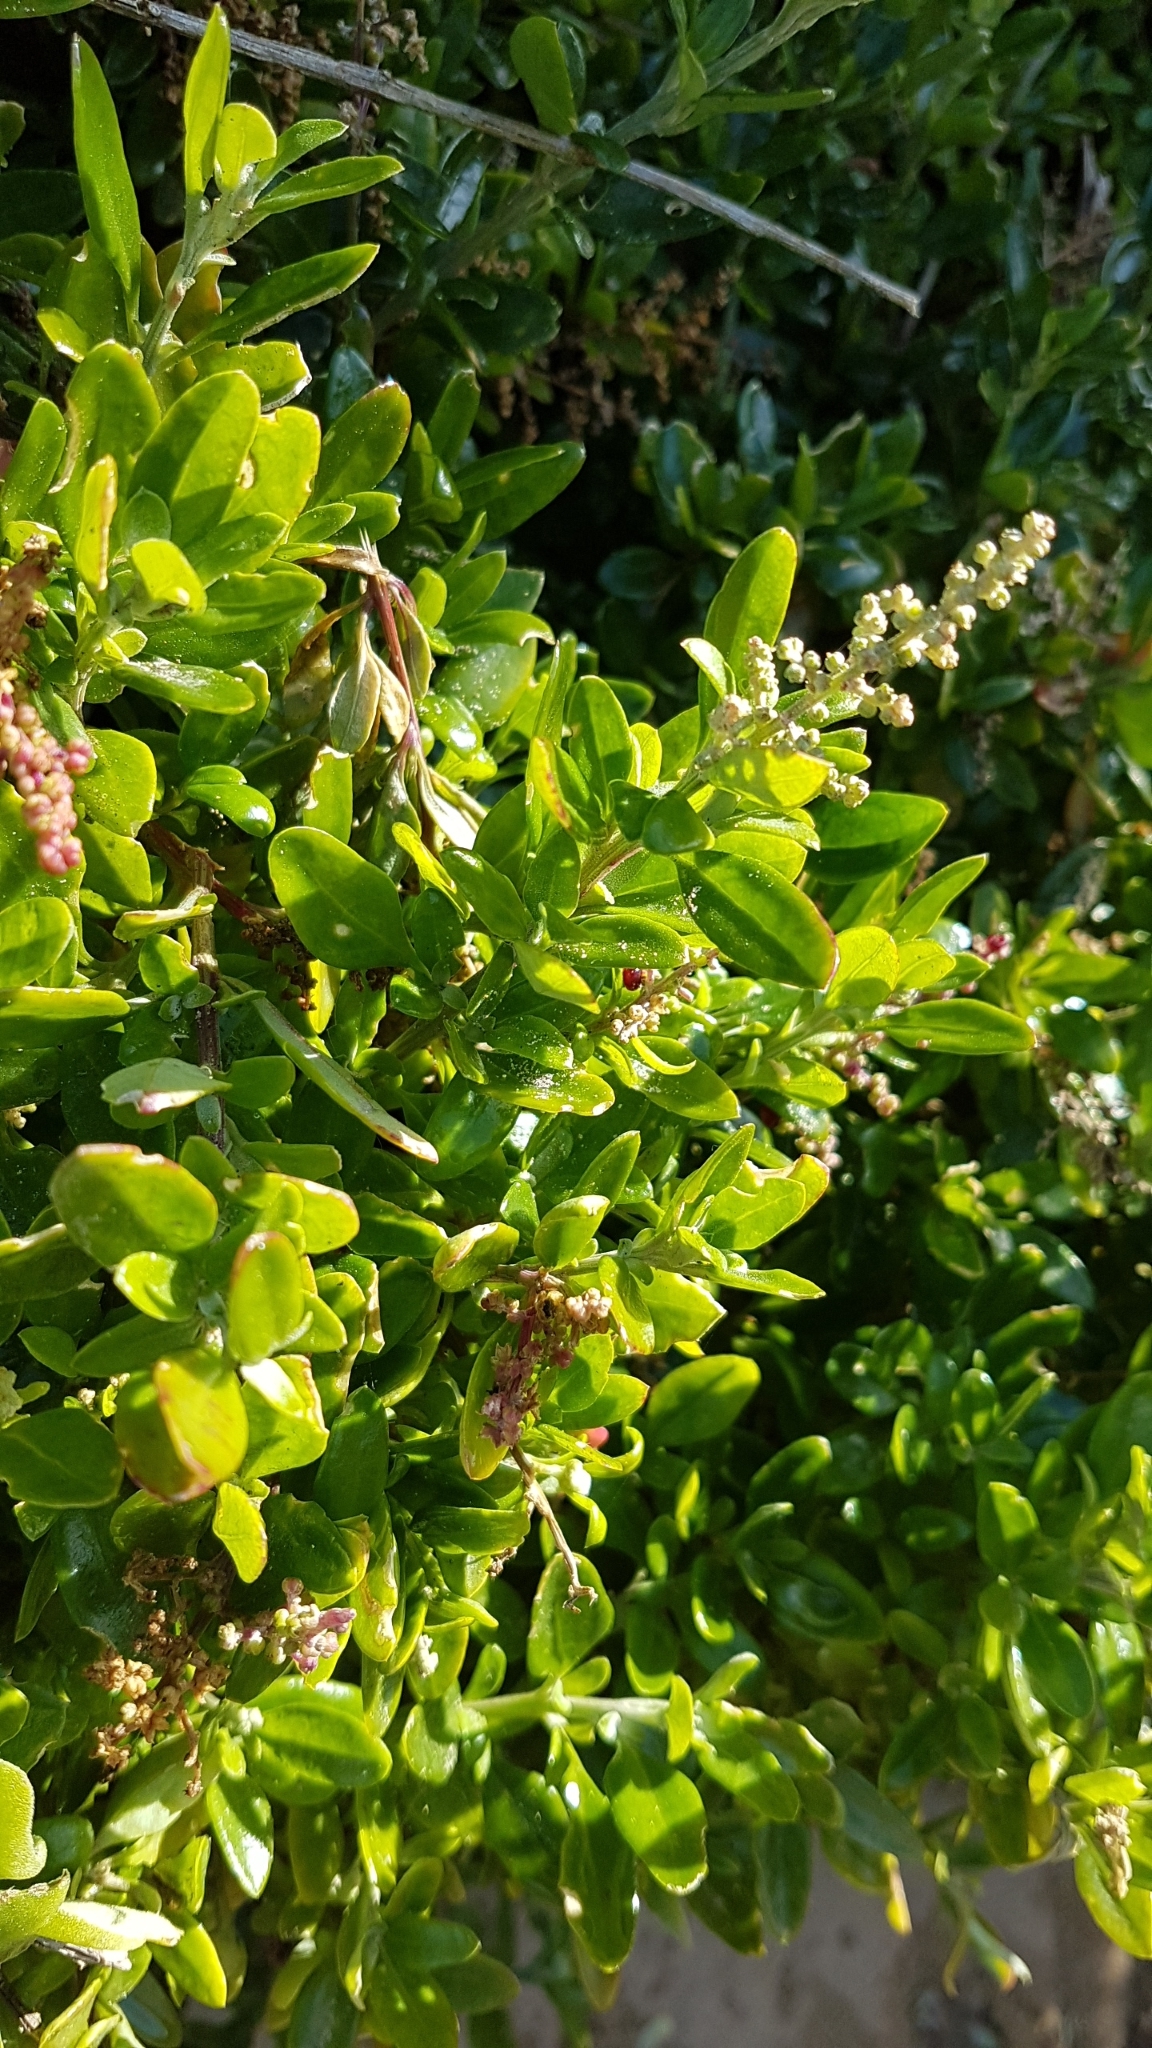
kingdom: Plantae
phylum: Tracheophyta
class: Magnoliopsida
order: Caryophyllales
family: Amaranthaceae
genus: Chenopodium
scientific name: Chenopodium candolleanum
